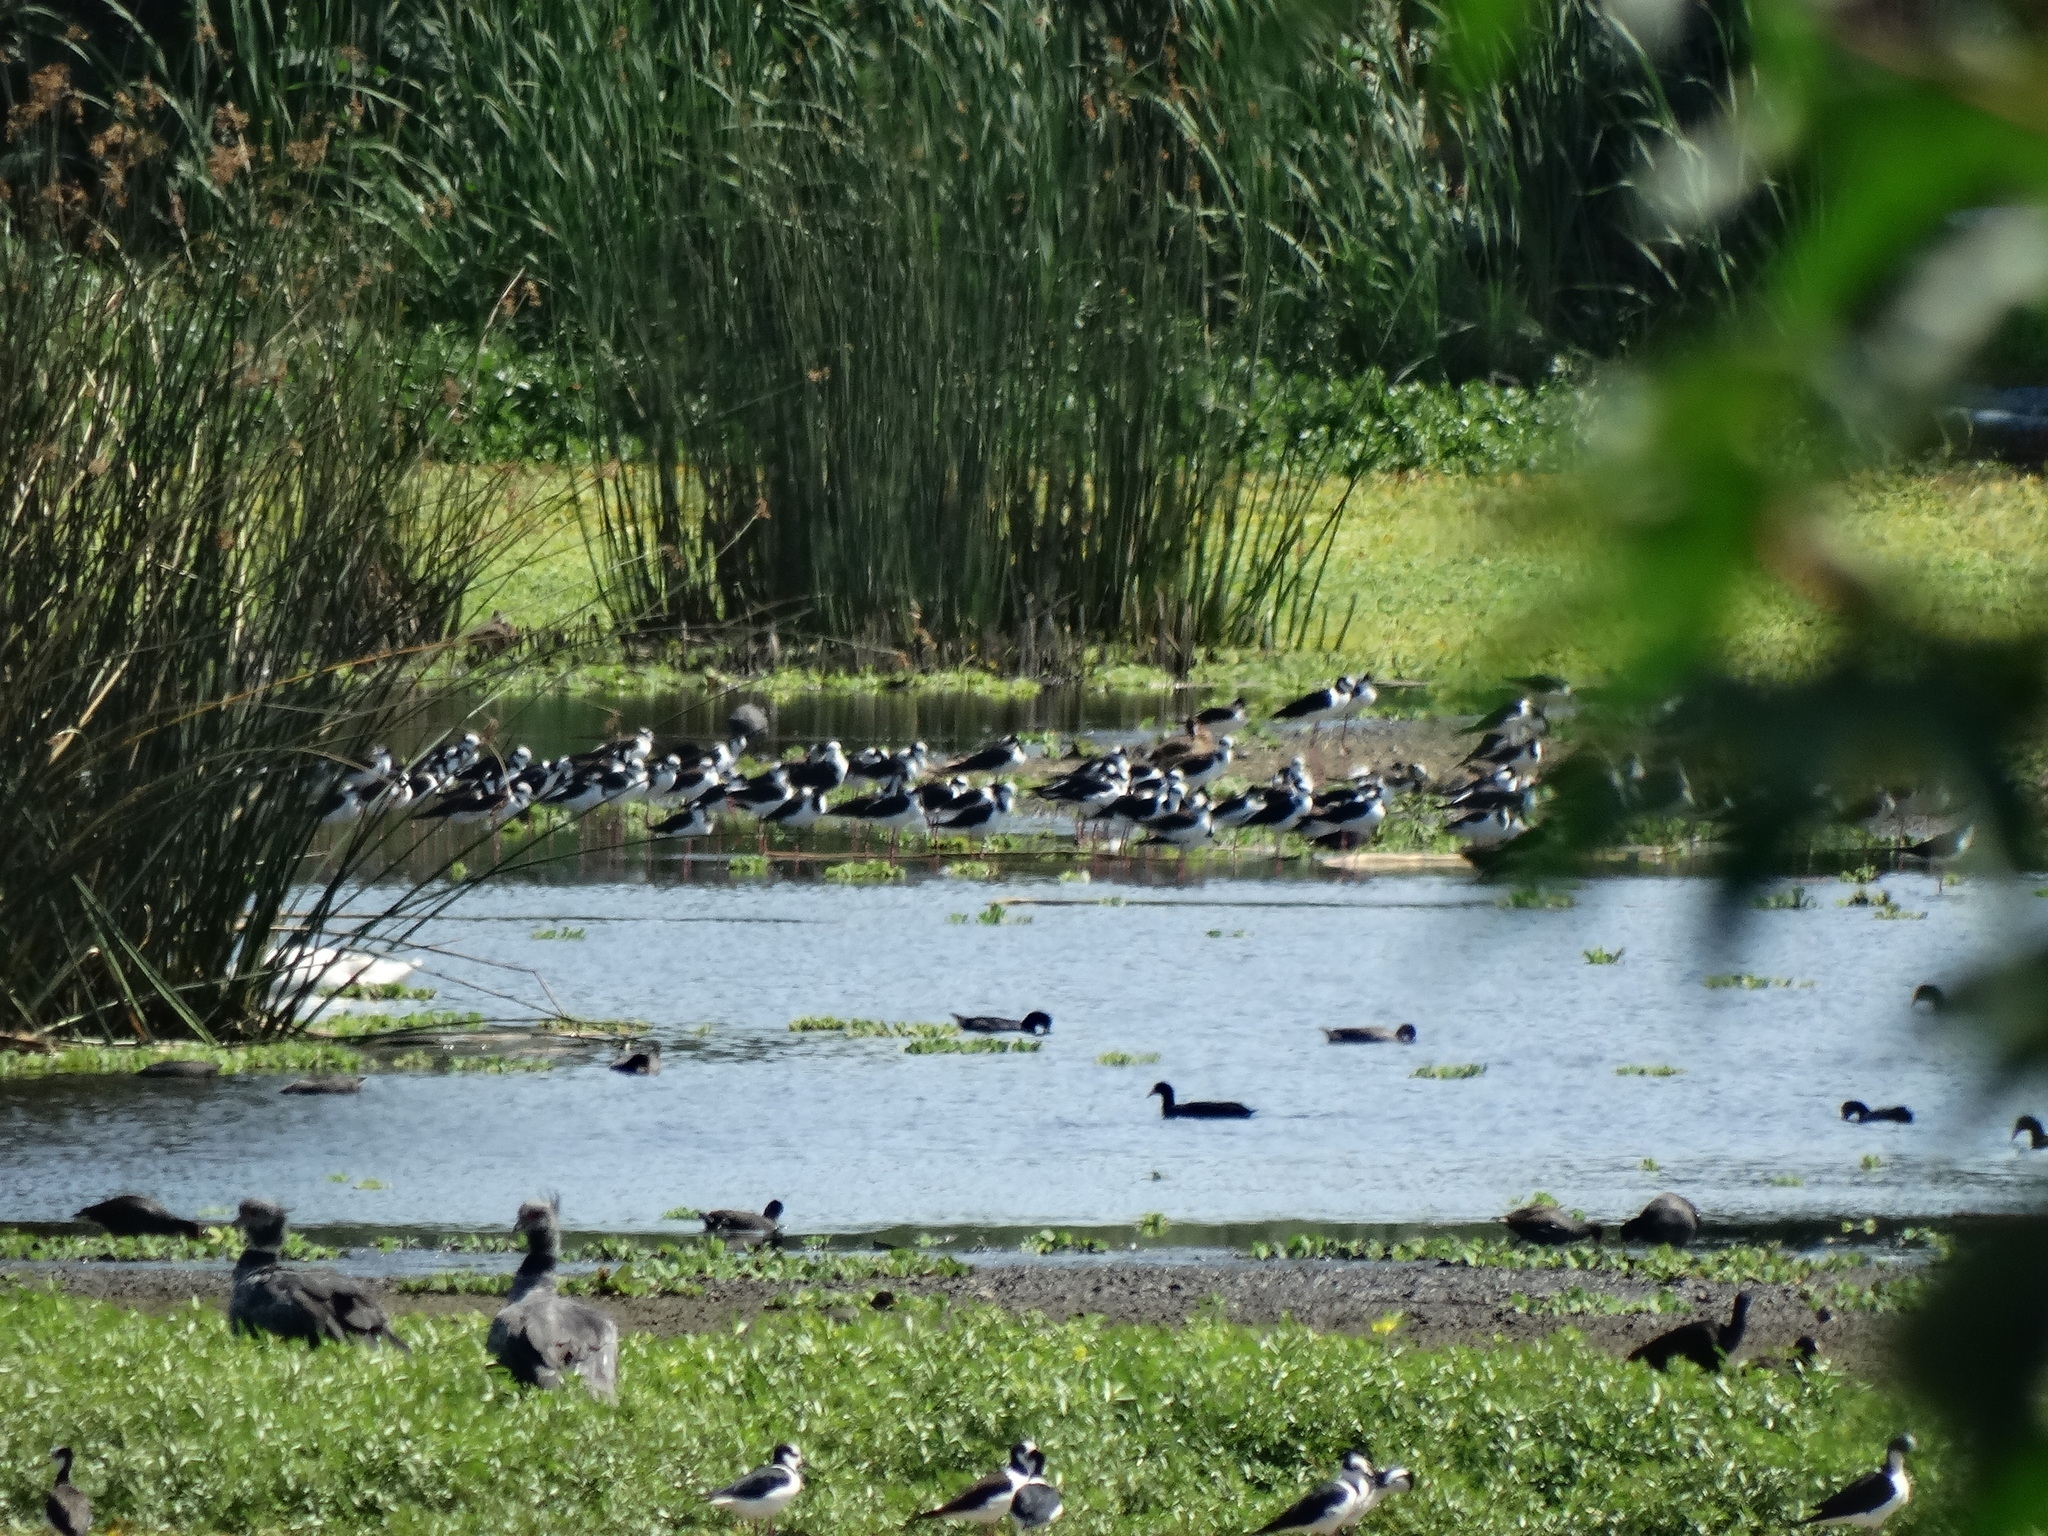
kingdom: Animalia
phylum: Chordata
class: Aves
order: Charadriiformes
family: Recurvirostridae
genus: Himantopus
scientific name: Himantopus mexicanus
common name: Black-necked stilt
